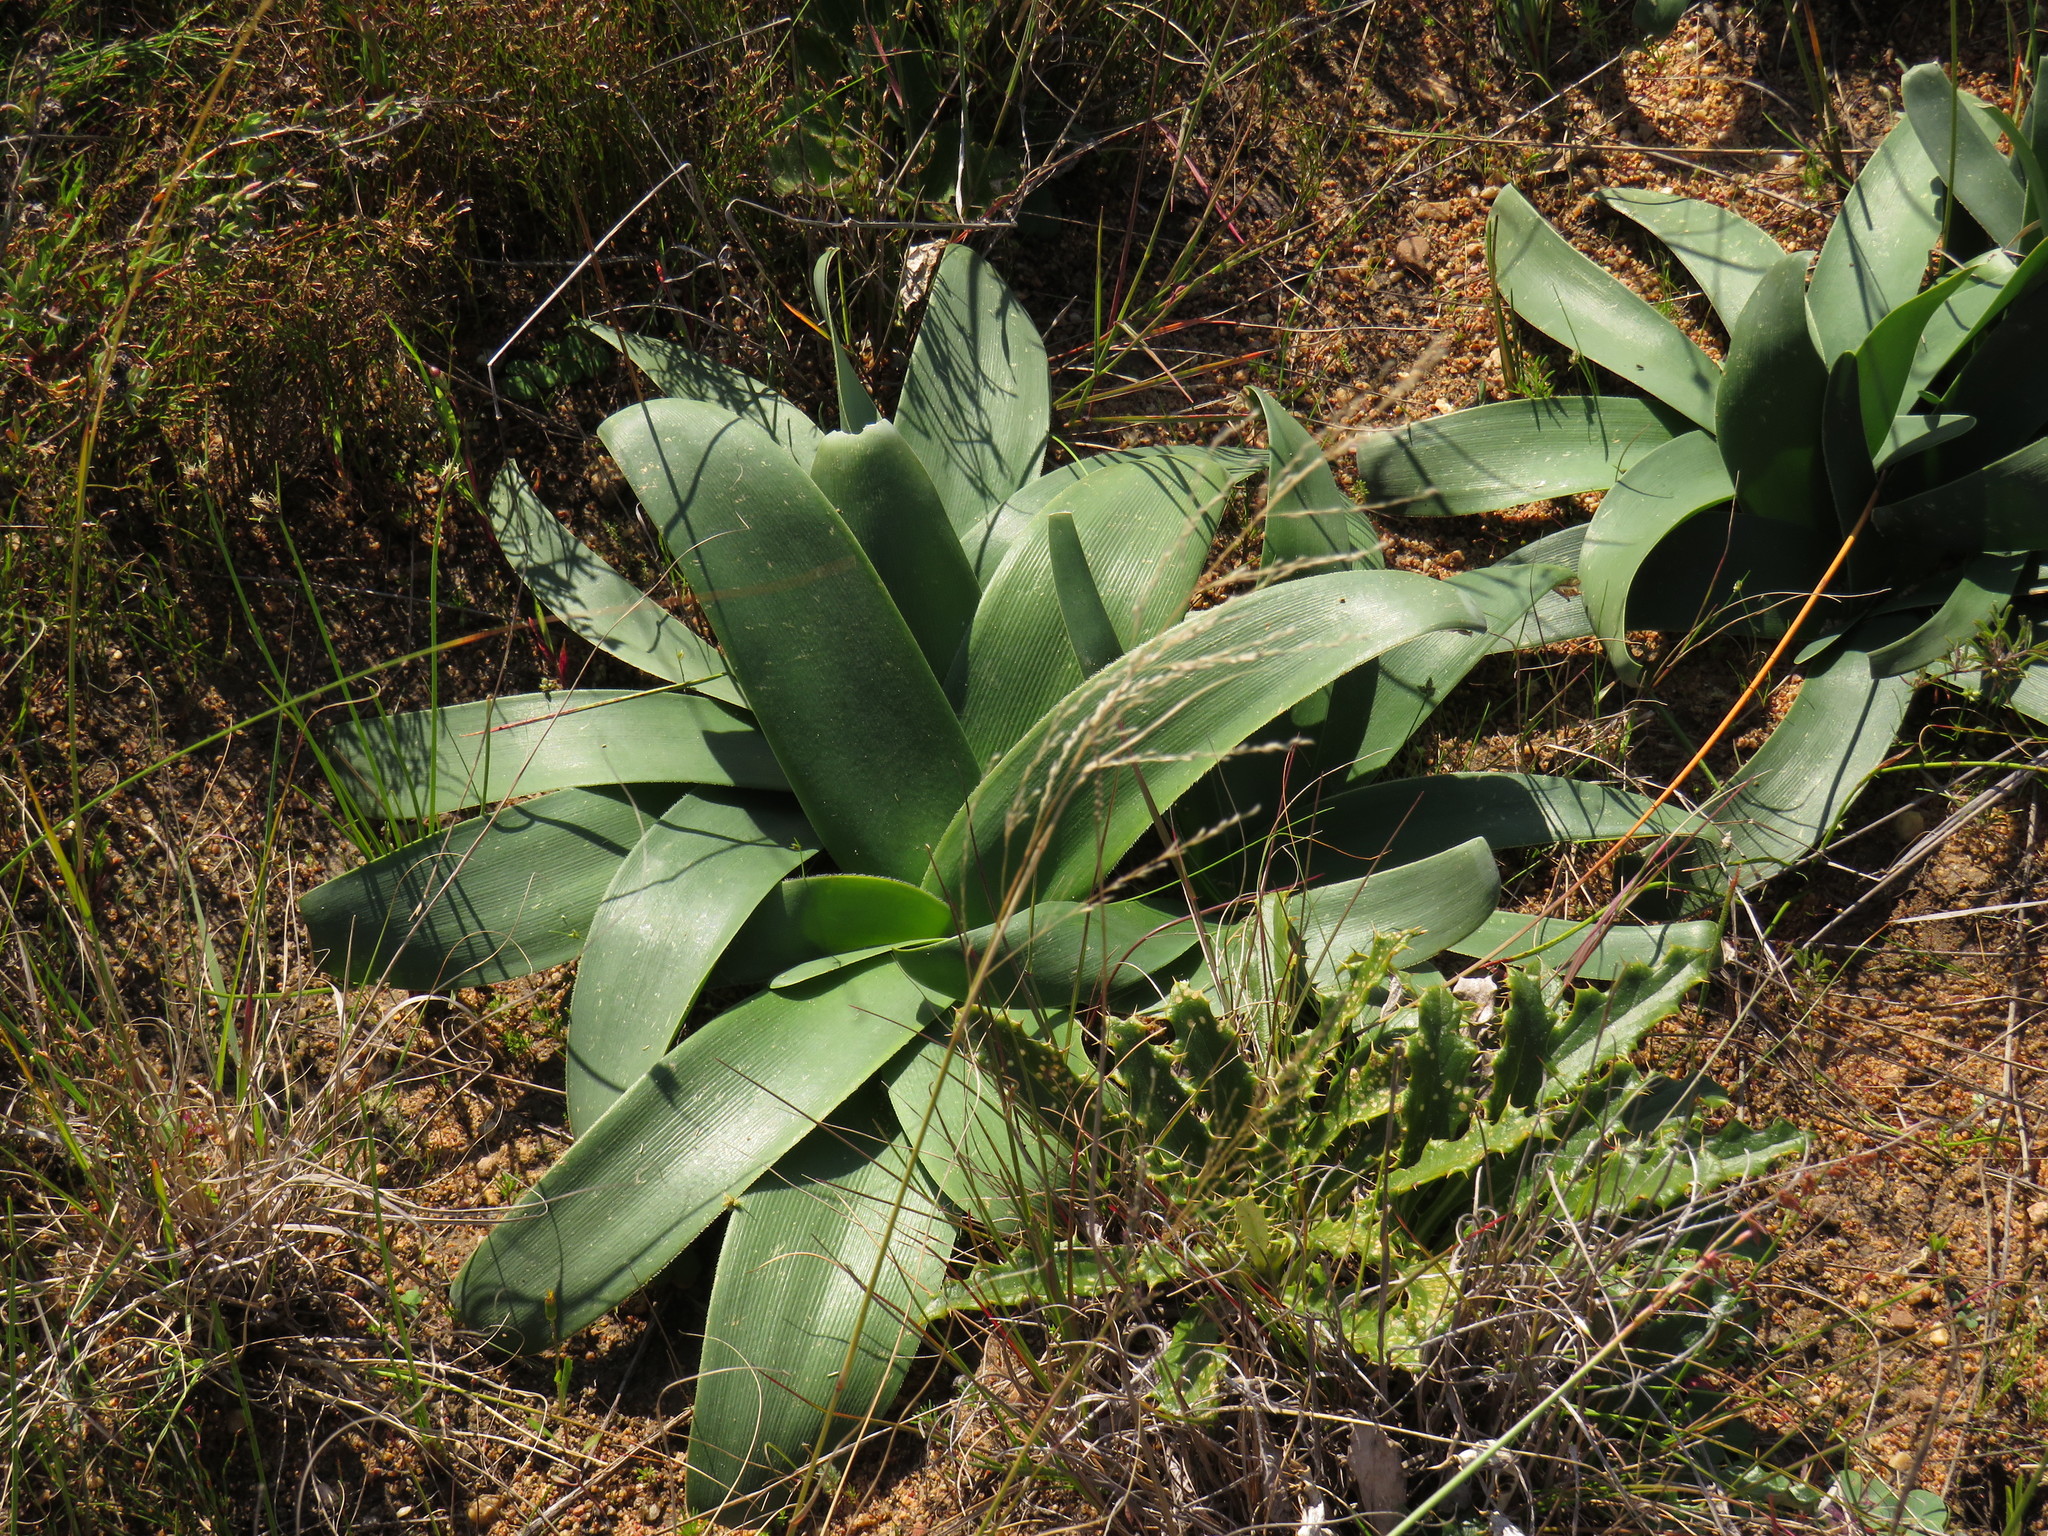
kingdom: Plantae
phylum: Tracheophyta
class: Liliopsida
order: Asparagales
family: Amaryllidaceae
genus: Ammocharis
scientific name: Ammocharis longifolia
